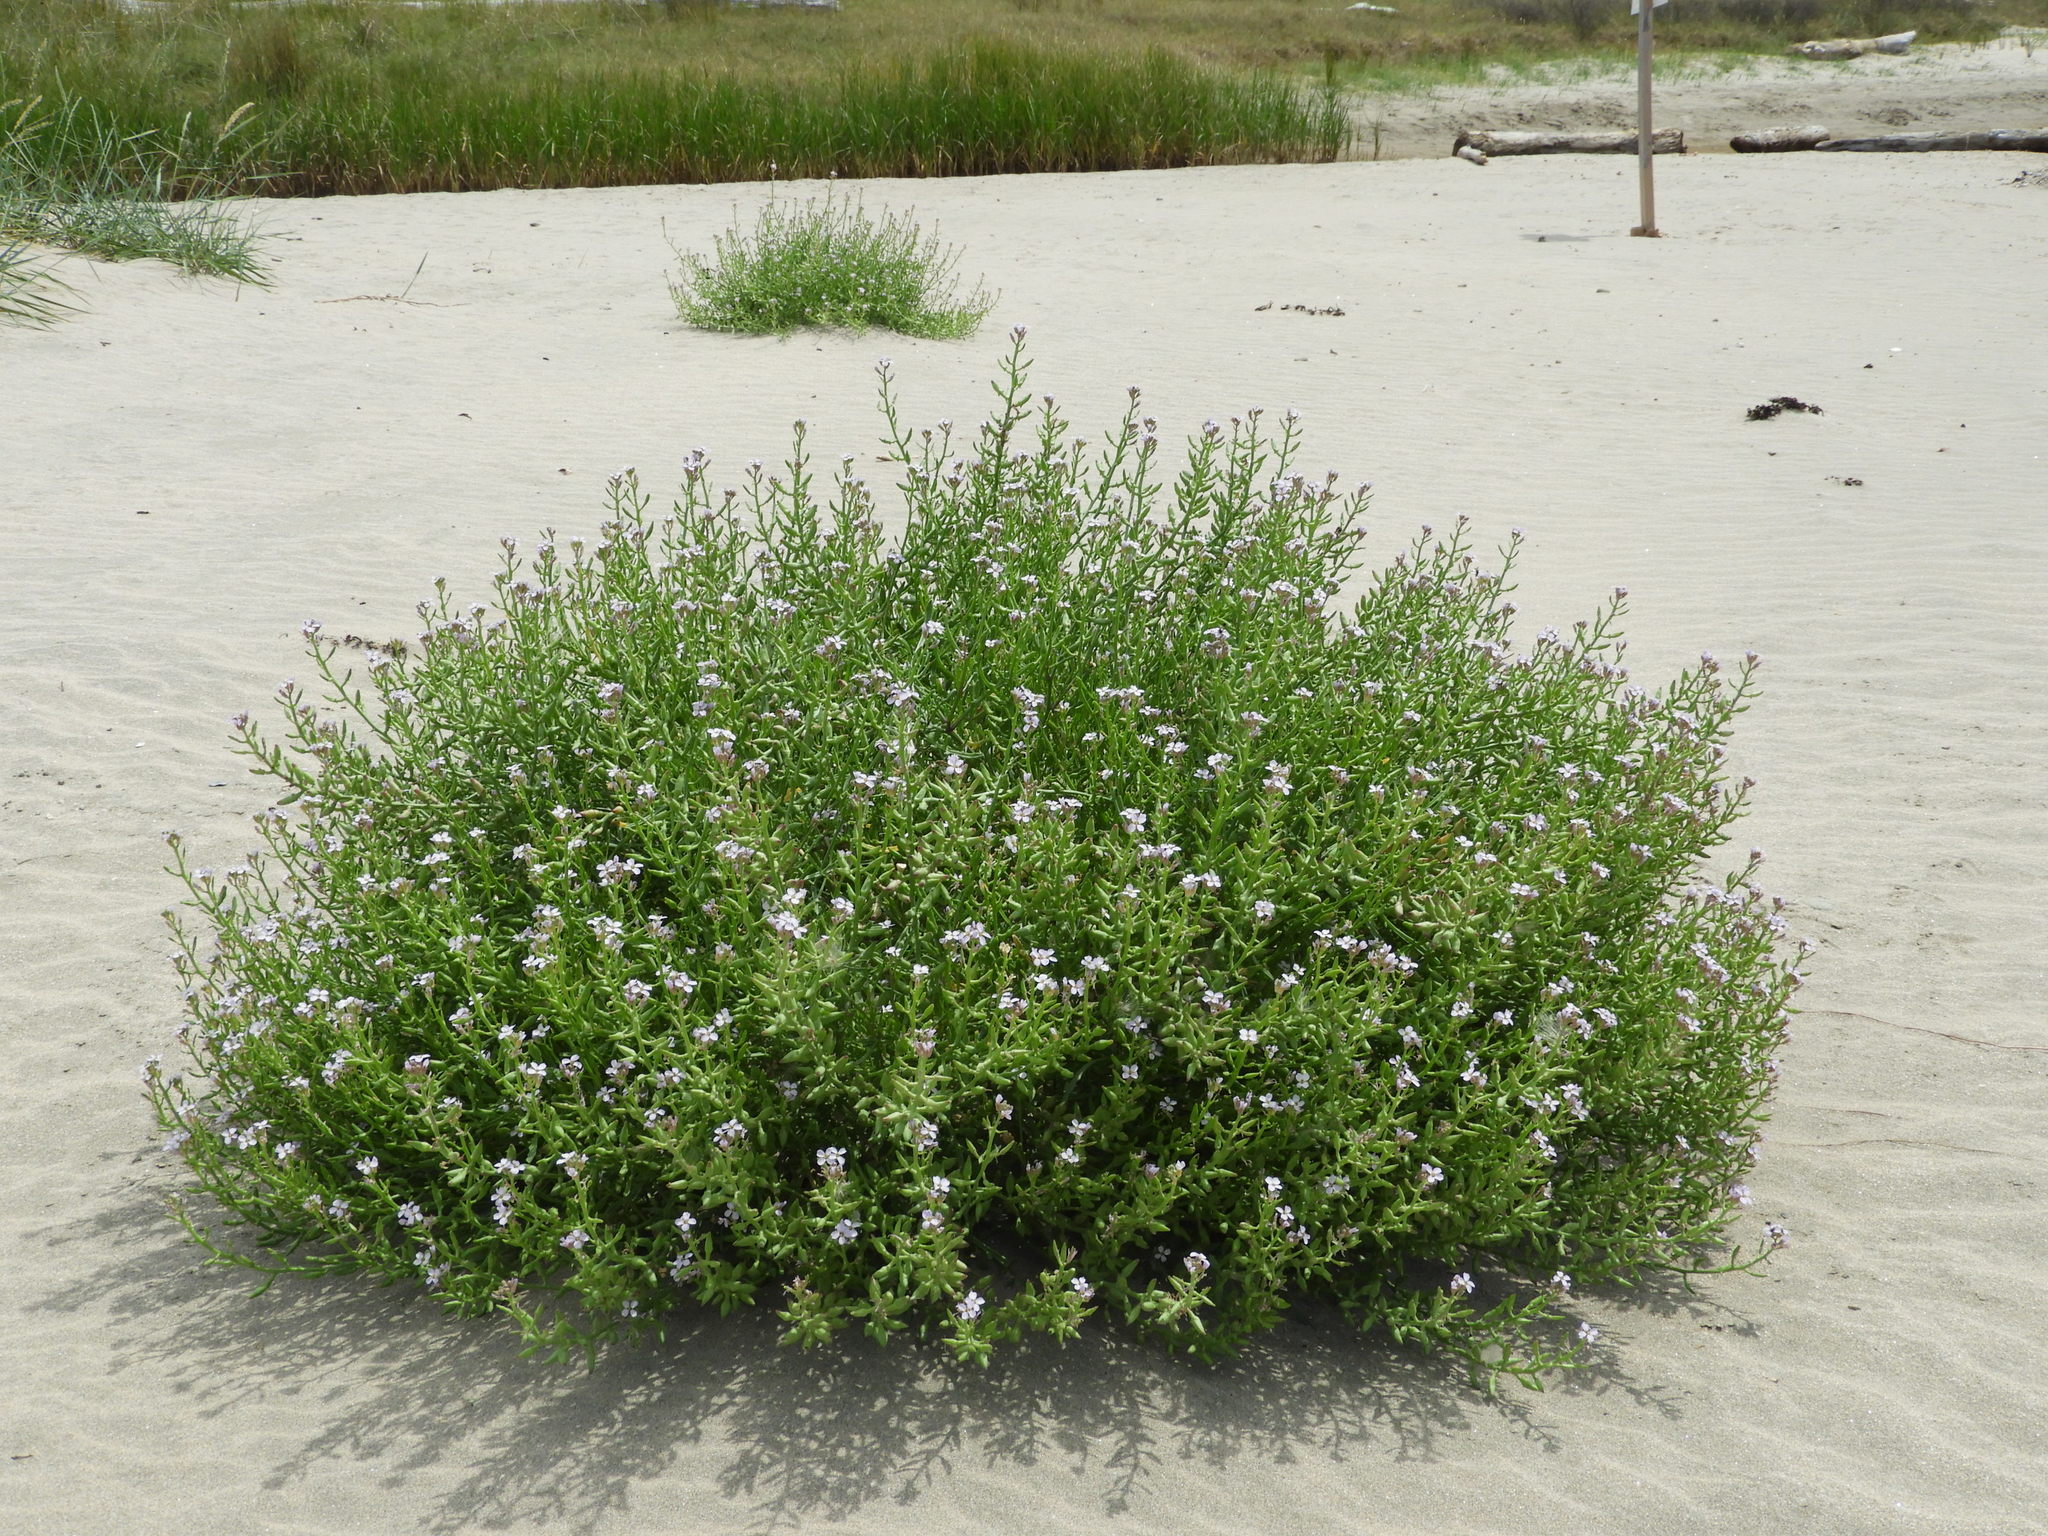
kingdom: Plantae
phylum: Tracheophyta
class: Magnoliopsida
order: Brassicales
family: Brassicaceae
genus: Cakile
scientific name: Cakile maritima
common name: Sea rocket
